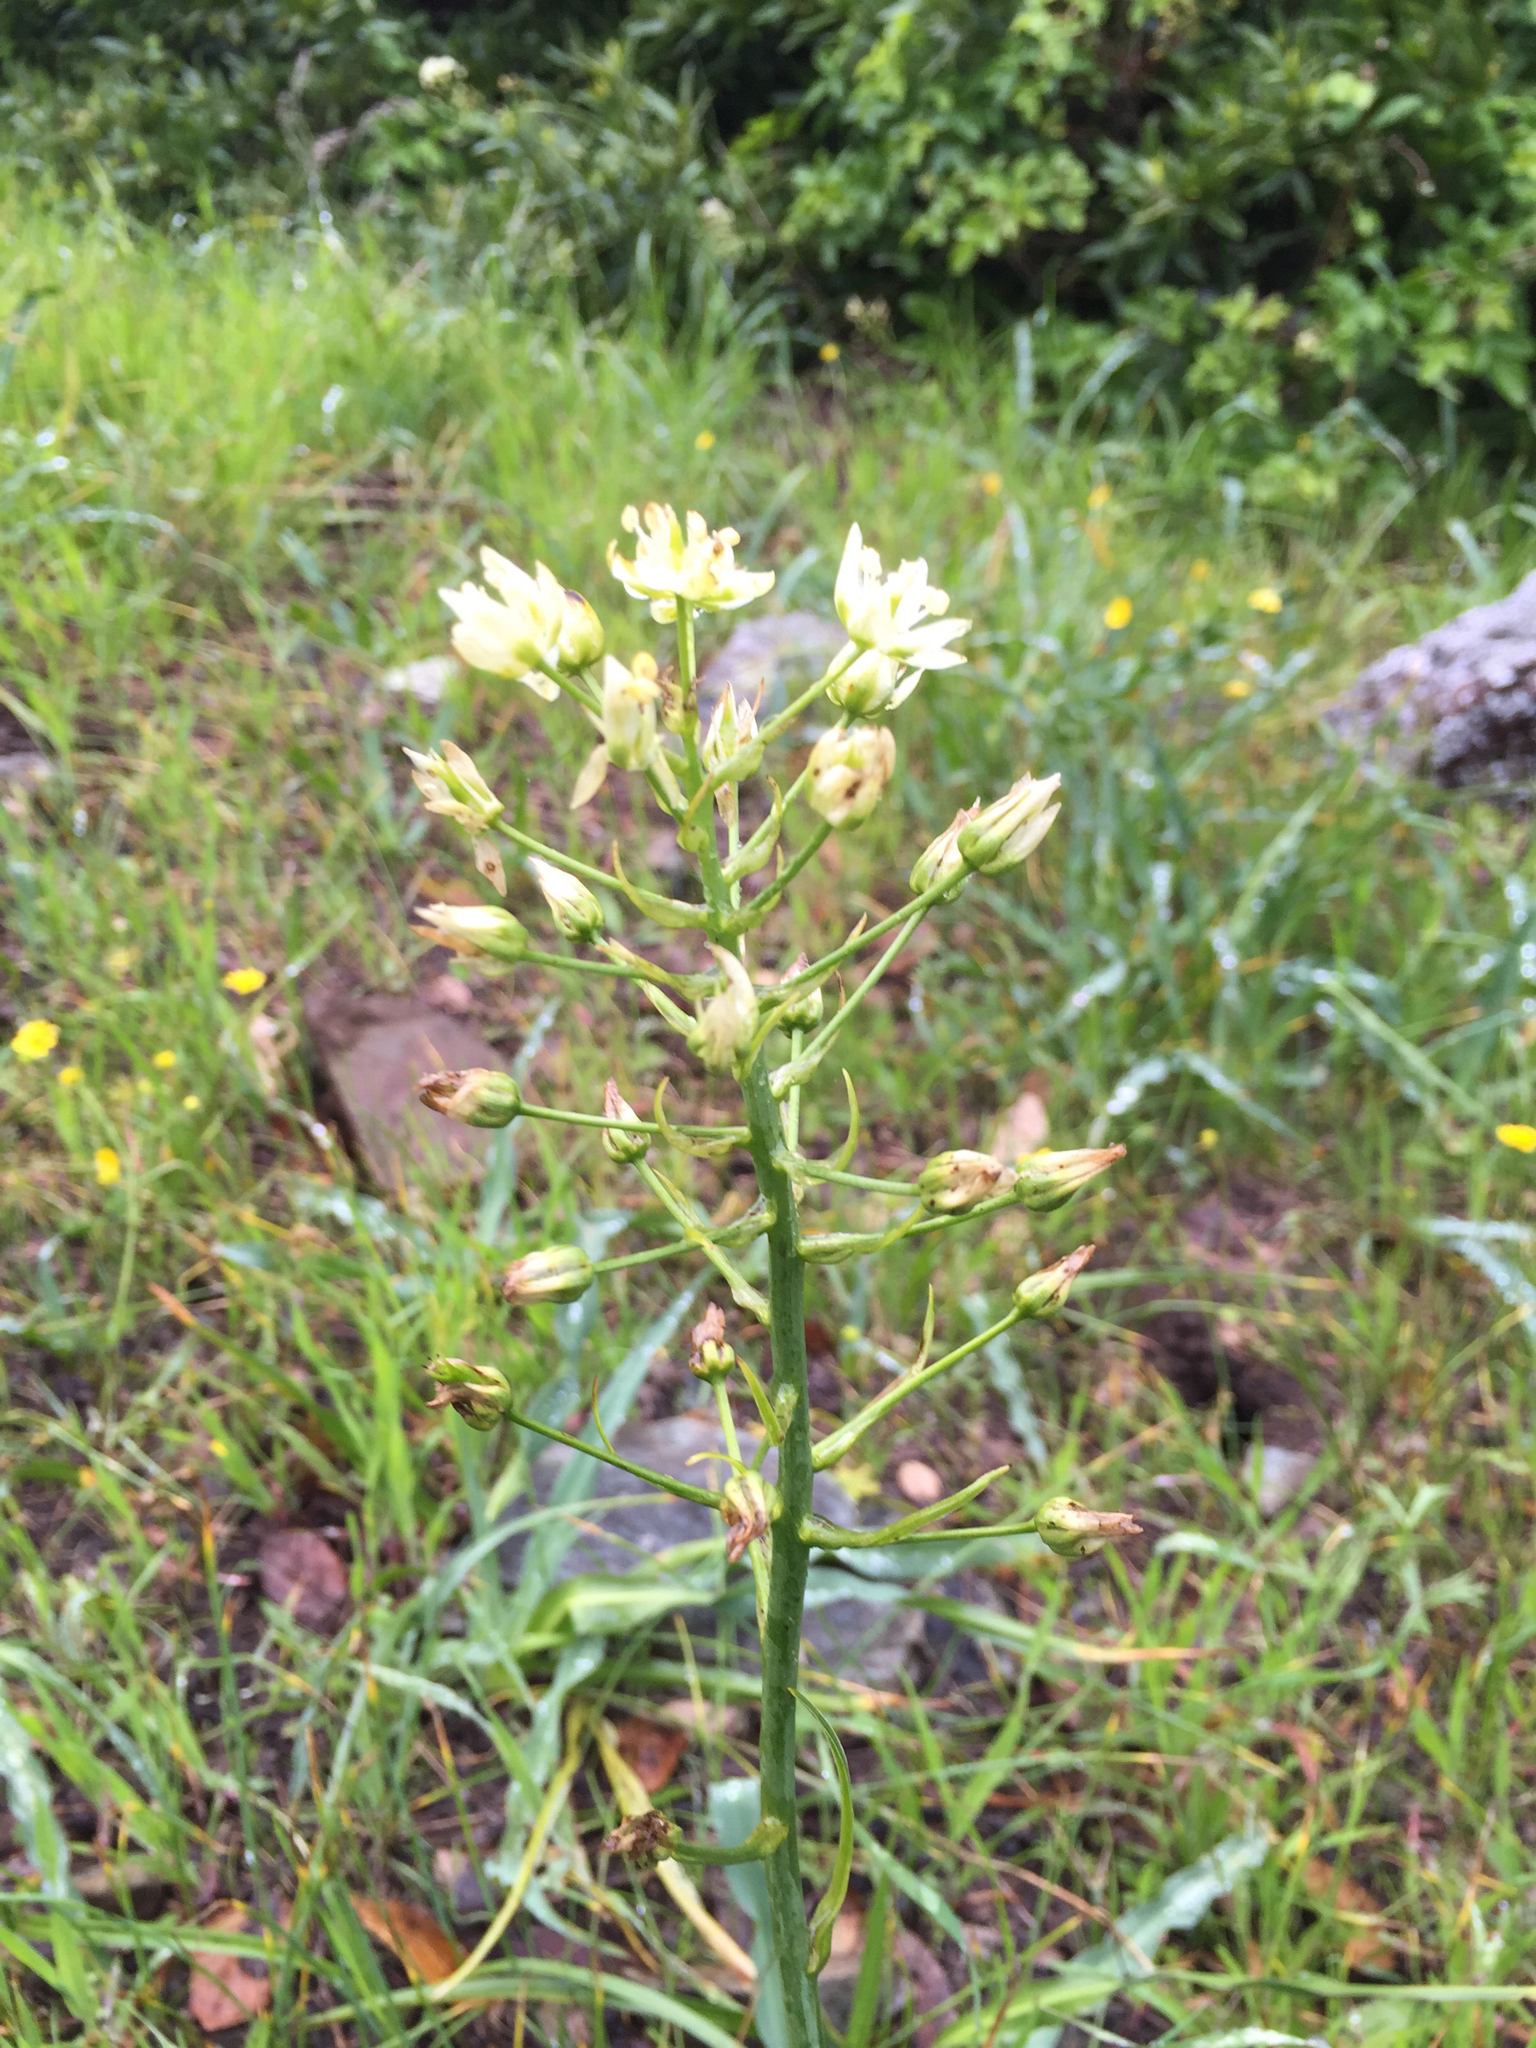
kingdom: Plantae
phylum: Tracheophyta
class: Liliopsida
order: Liliales
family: Melanthiaceae
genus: Toxicoscordion
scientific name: Toxicoscordion fremontii
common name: Fremont's death camas
